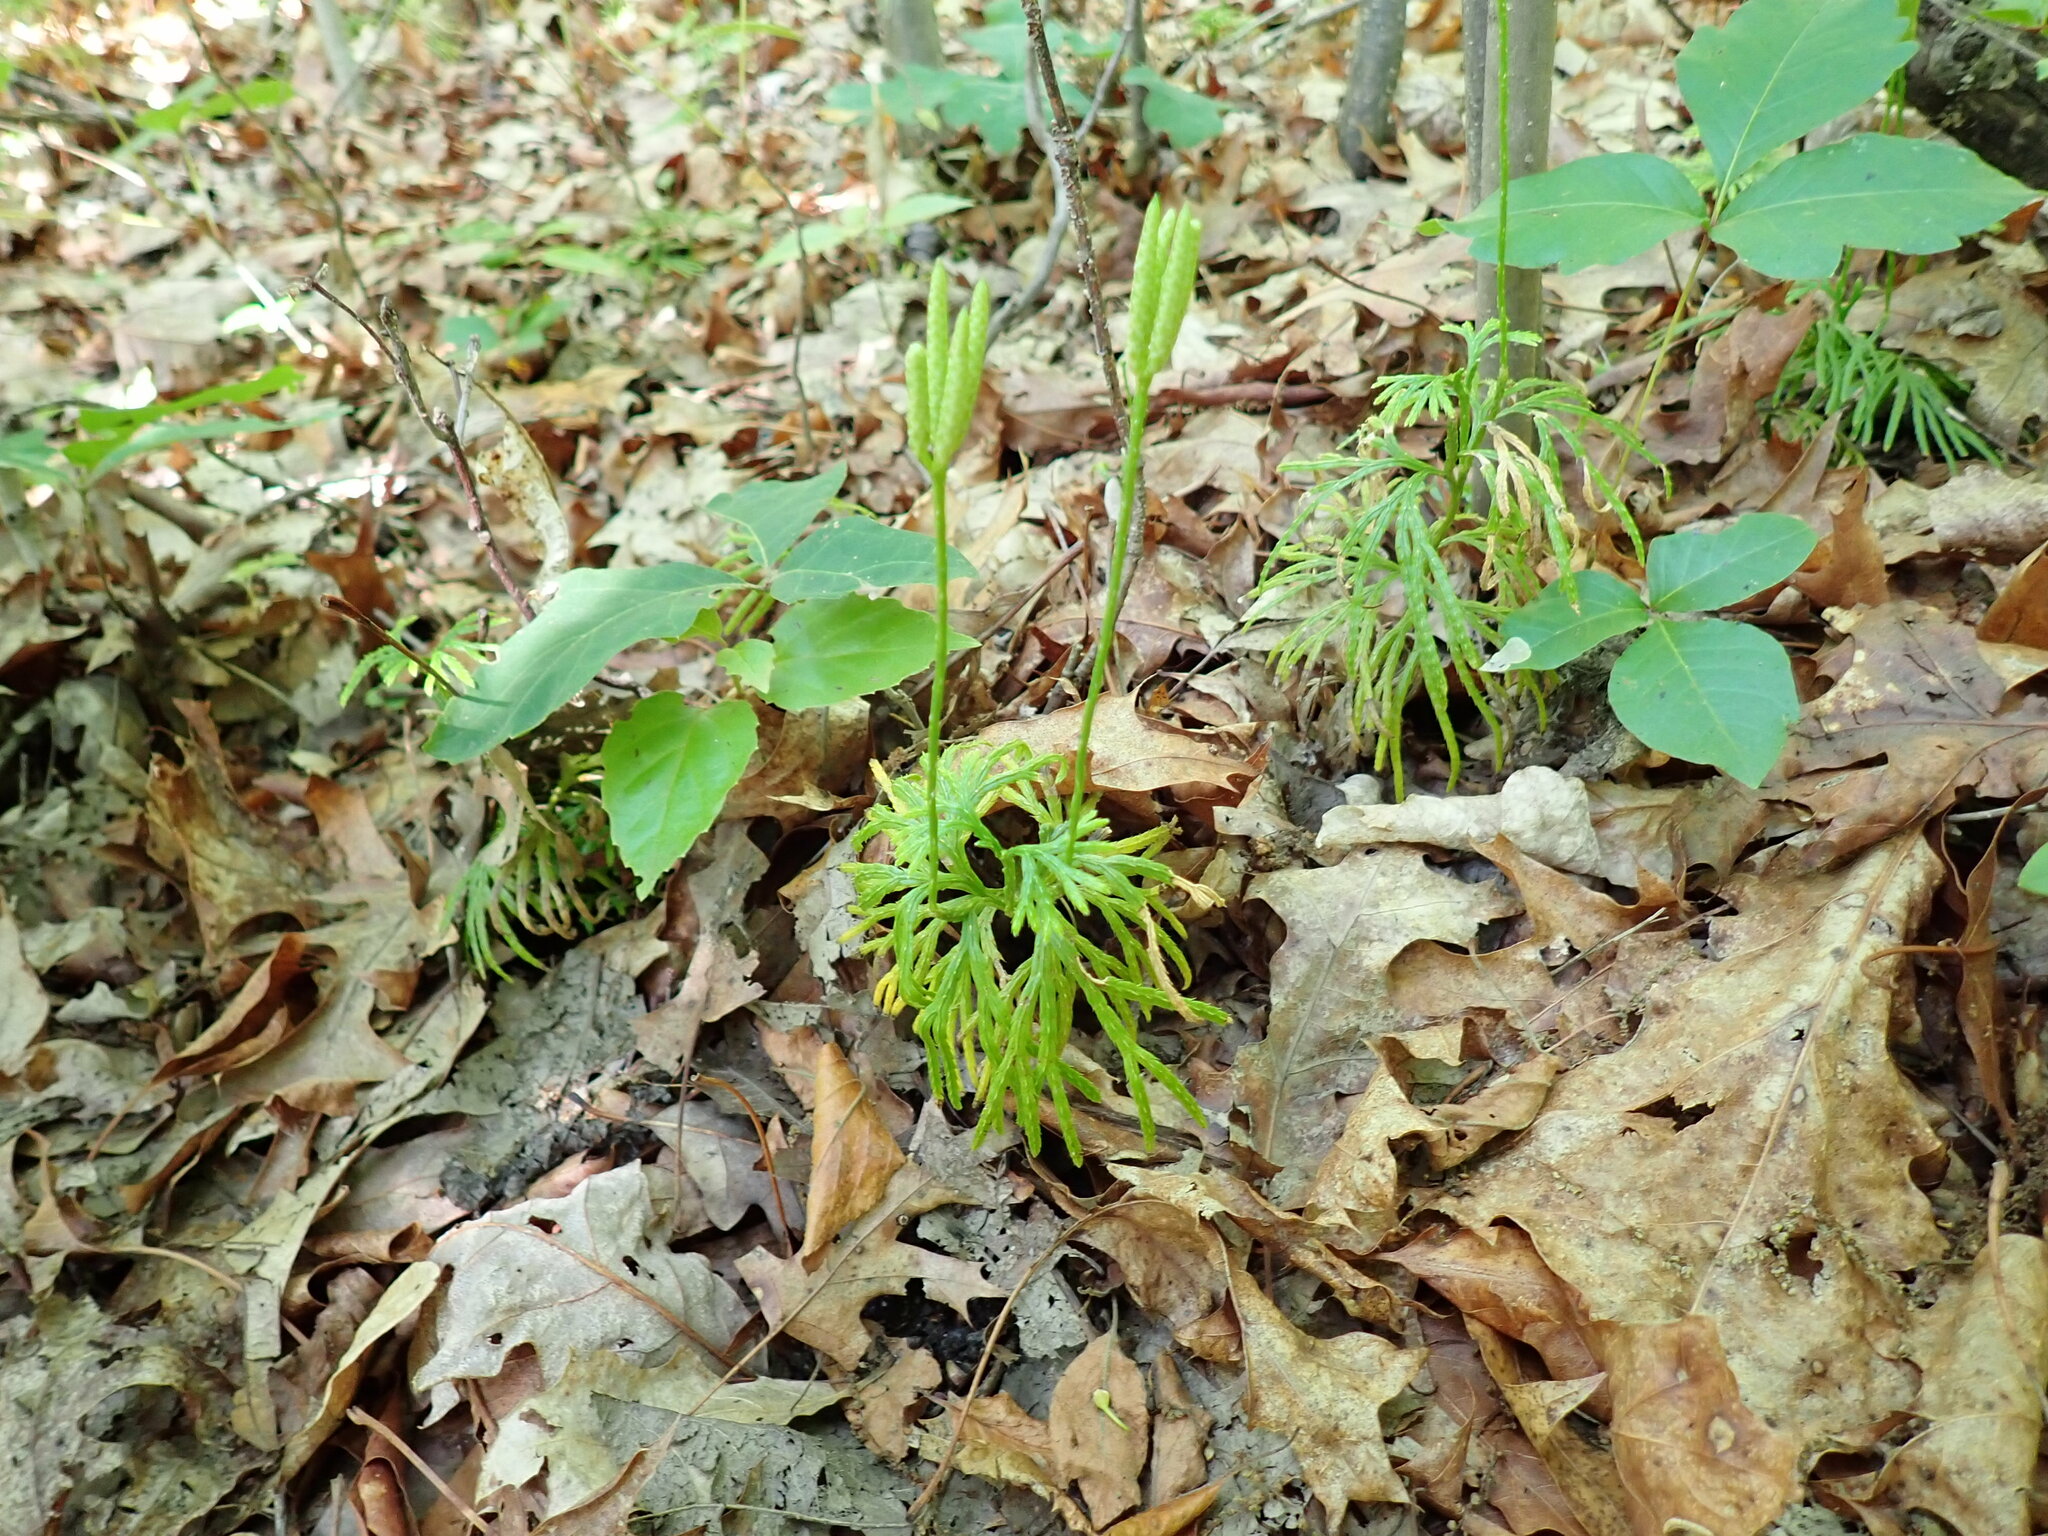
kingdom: Plantae
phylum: Tracheophyta
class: Lycopodiopsida
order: Lycopodiales
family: Lycopodiaceae
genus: Diphasiastrum
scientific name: Diphasiastrum digitatum
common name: Southern running-pine
